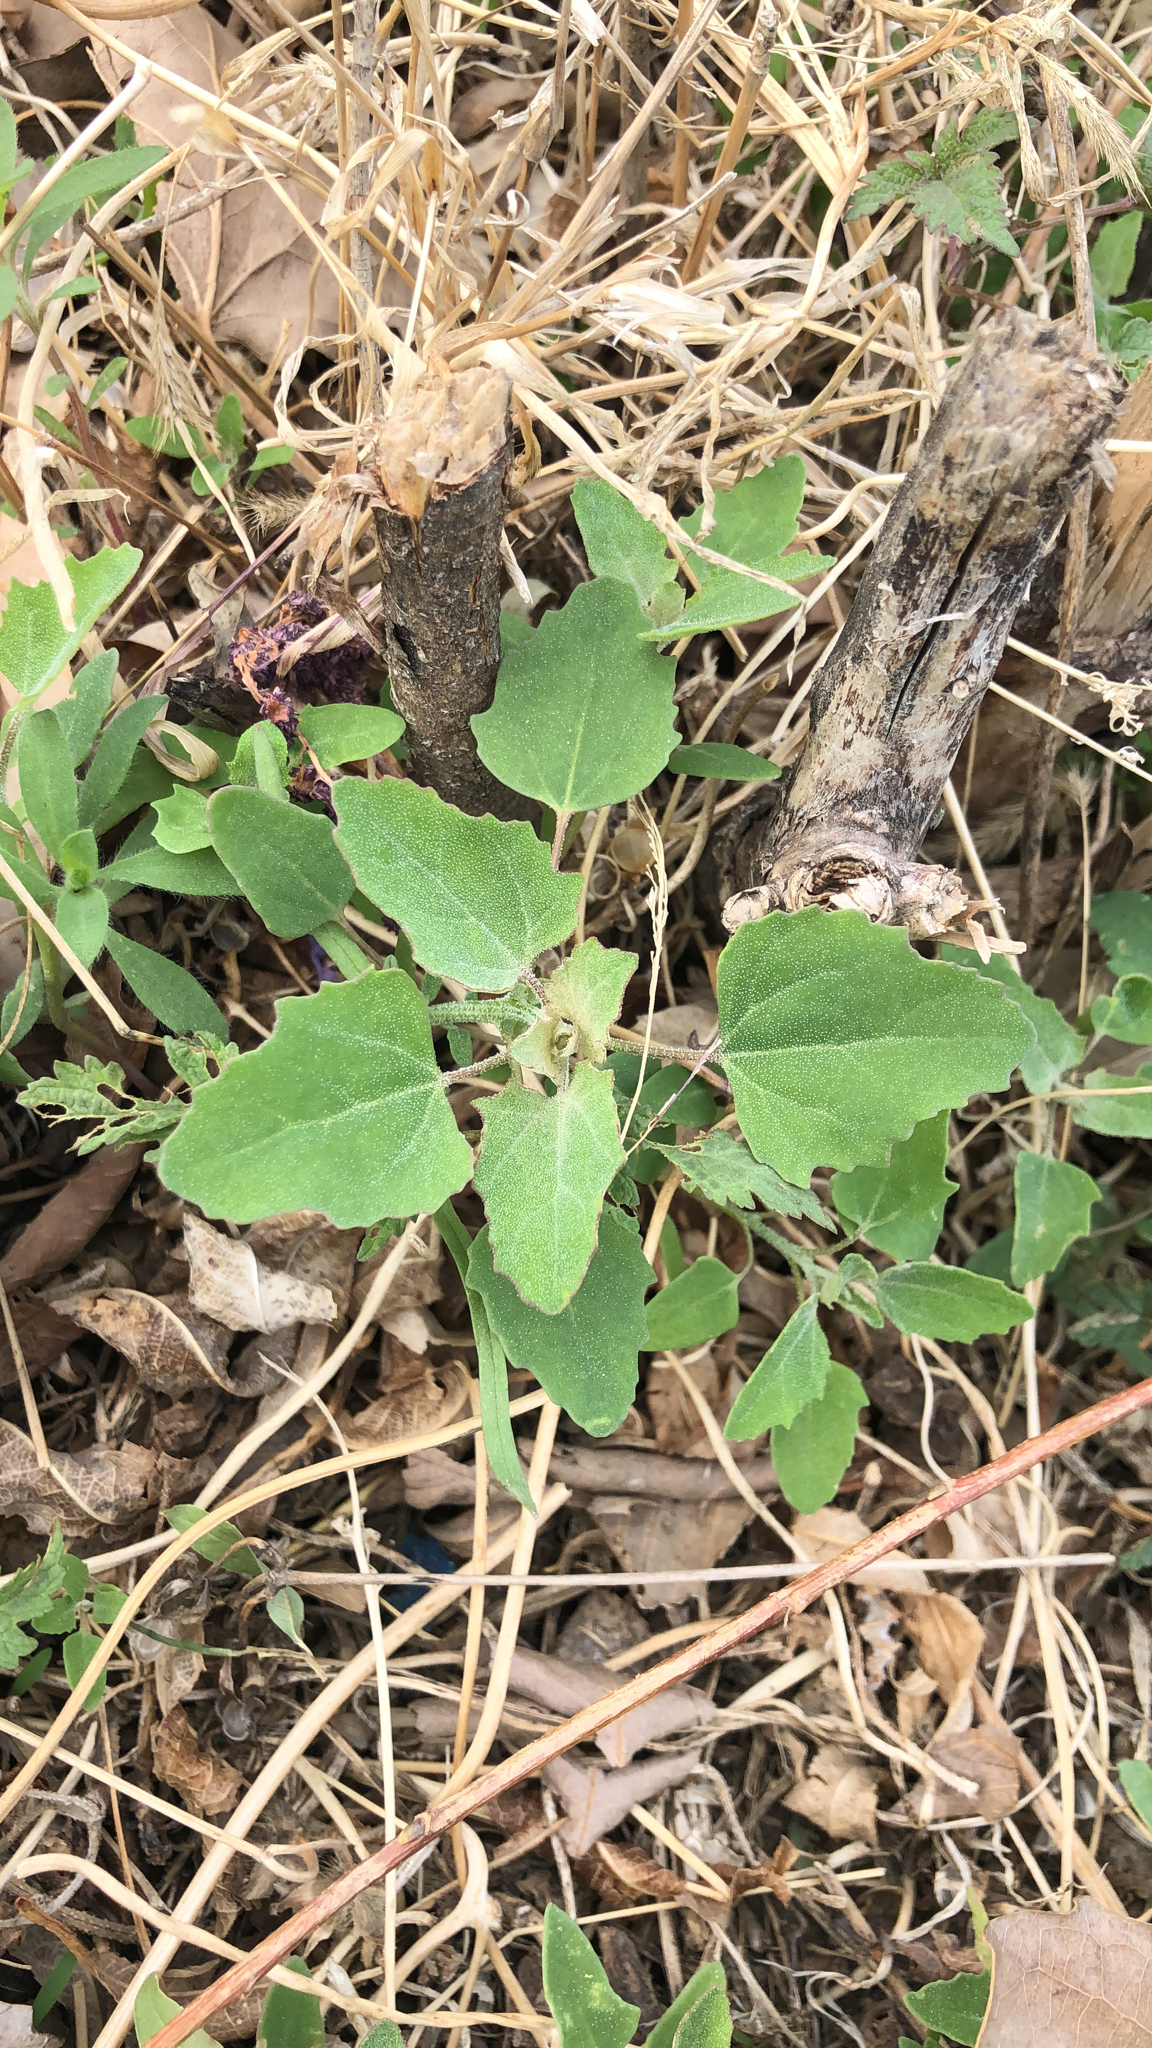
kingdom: Plantae
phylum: Tracheophyta
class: Magnoliopsida
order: Caryophyllales
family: Amaranthaceae
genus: Chenopodium
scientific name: Chenopodium album
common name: Fat-hen
